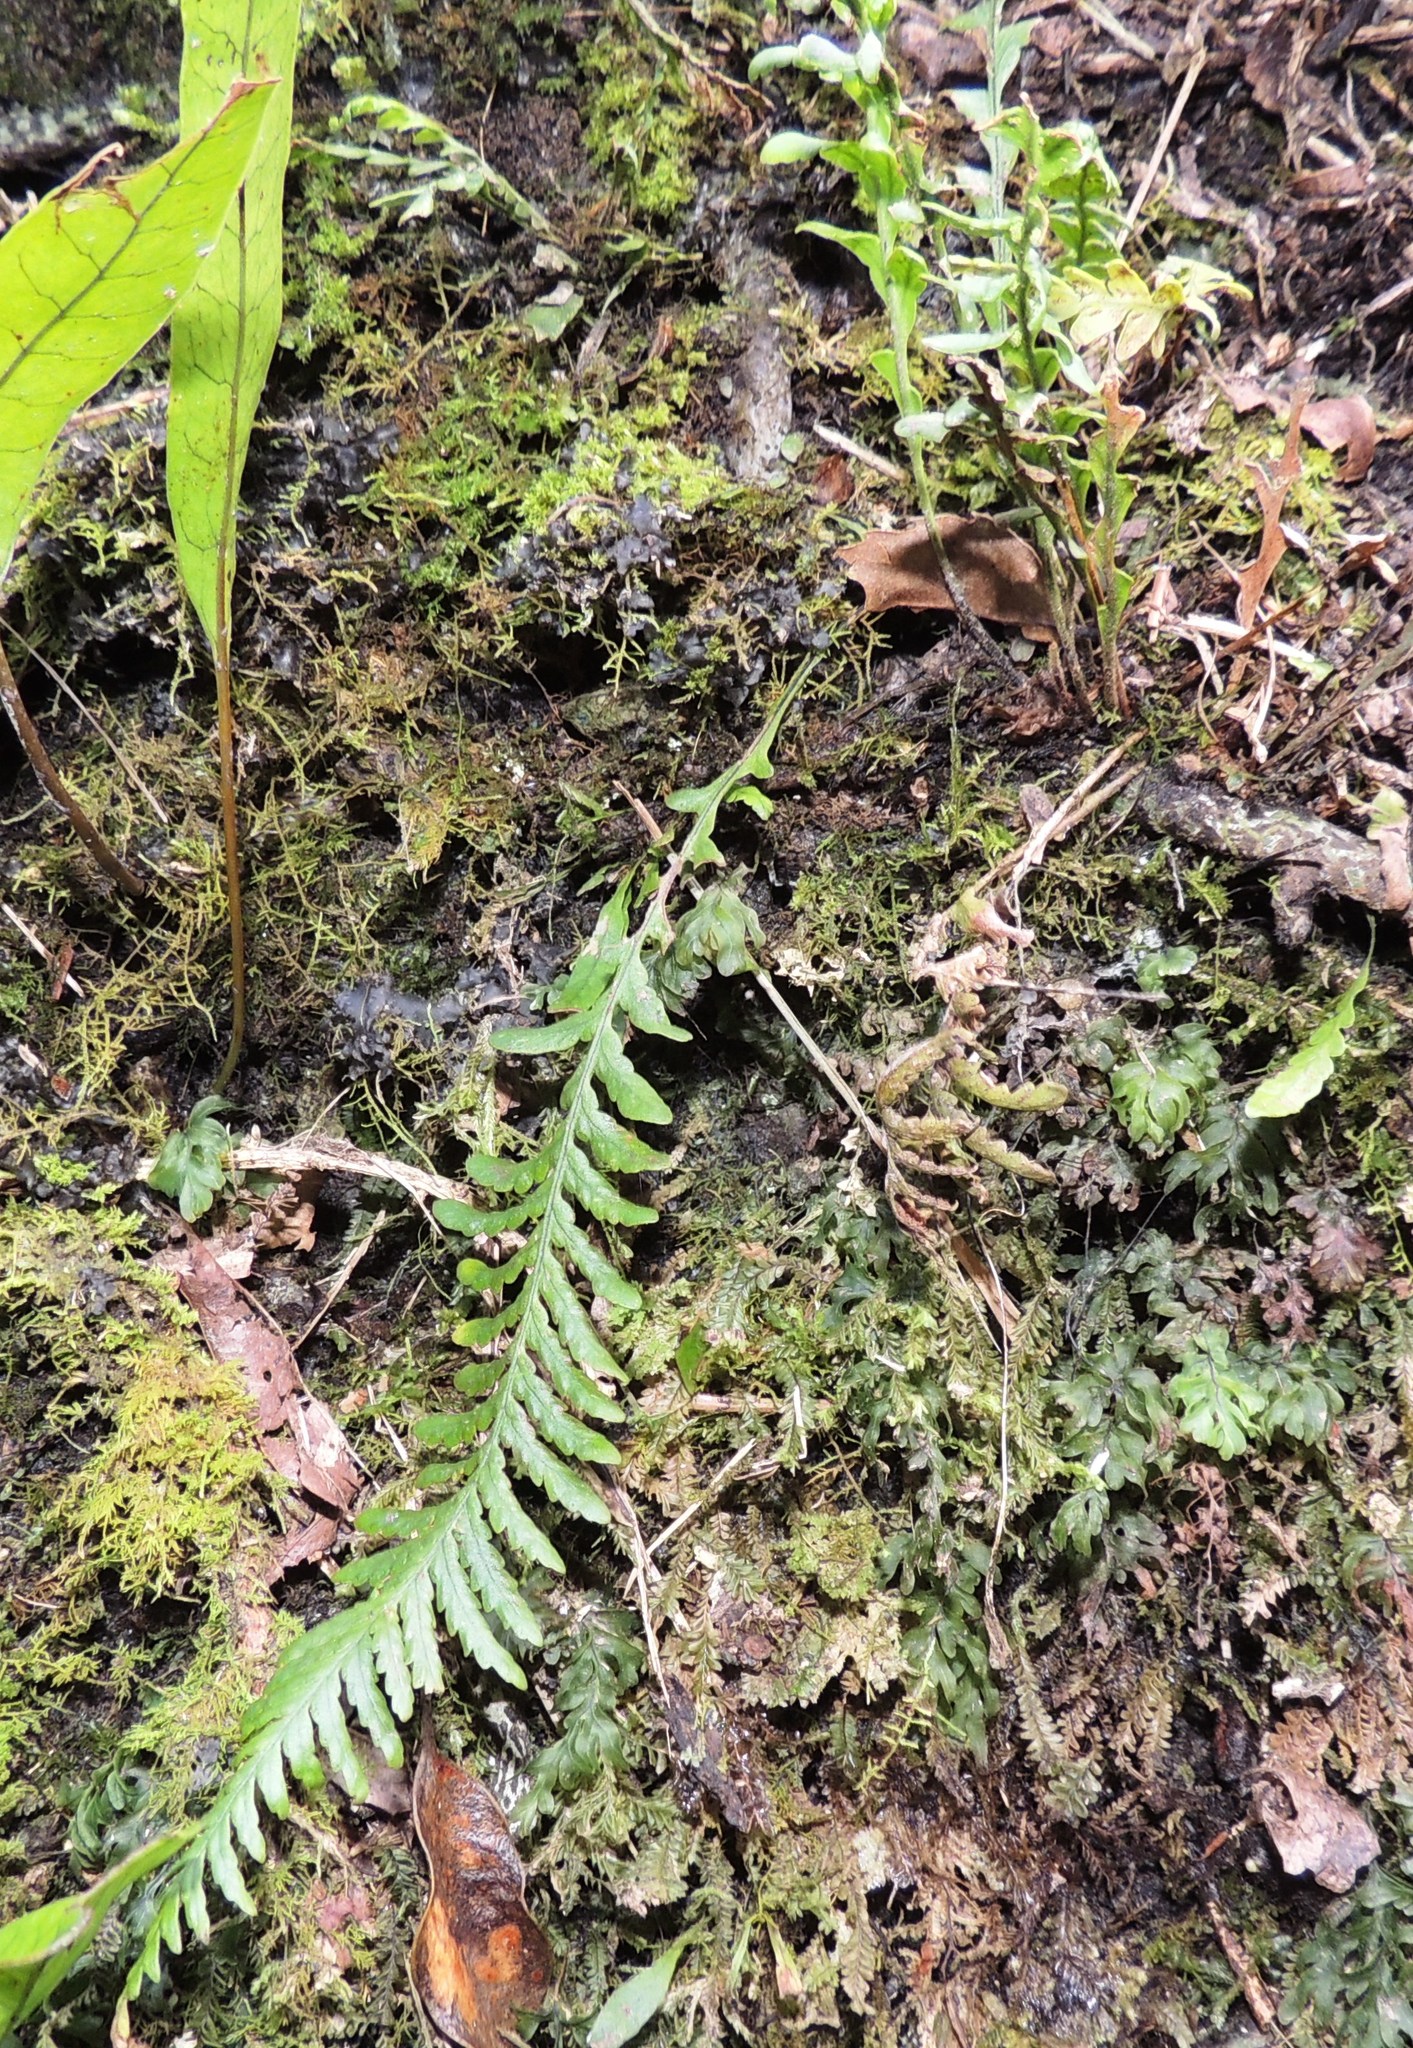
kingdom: Plantae
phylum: Tracheophyta
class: Polypodiopsida
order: Polypodiales
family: Polypodiaceae
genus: Notogrammitis
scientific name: Notogrammitis heterophylla
